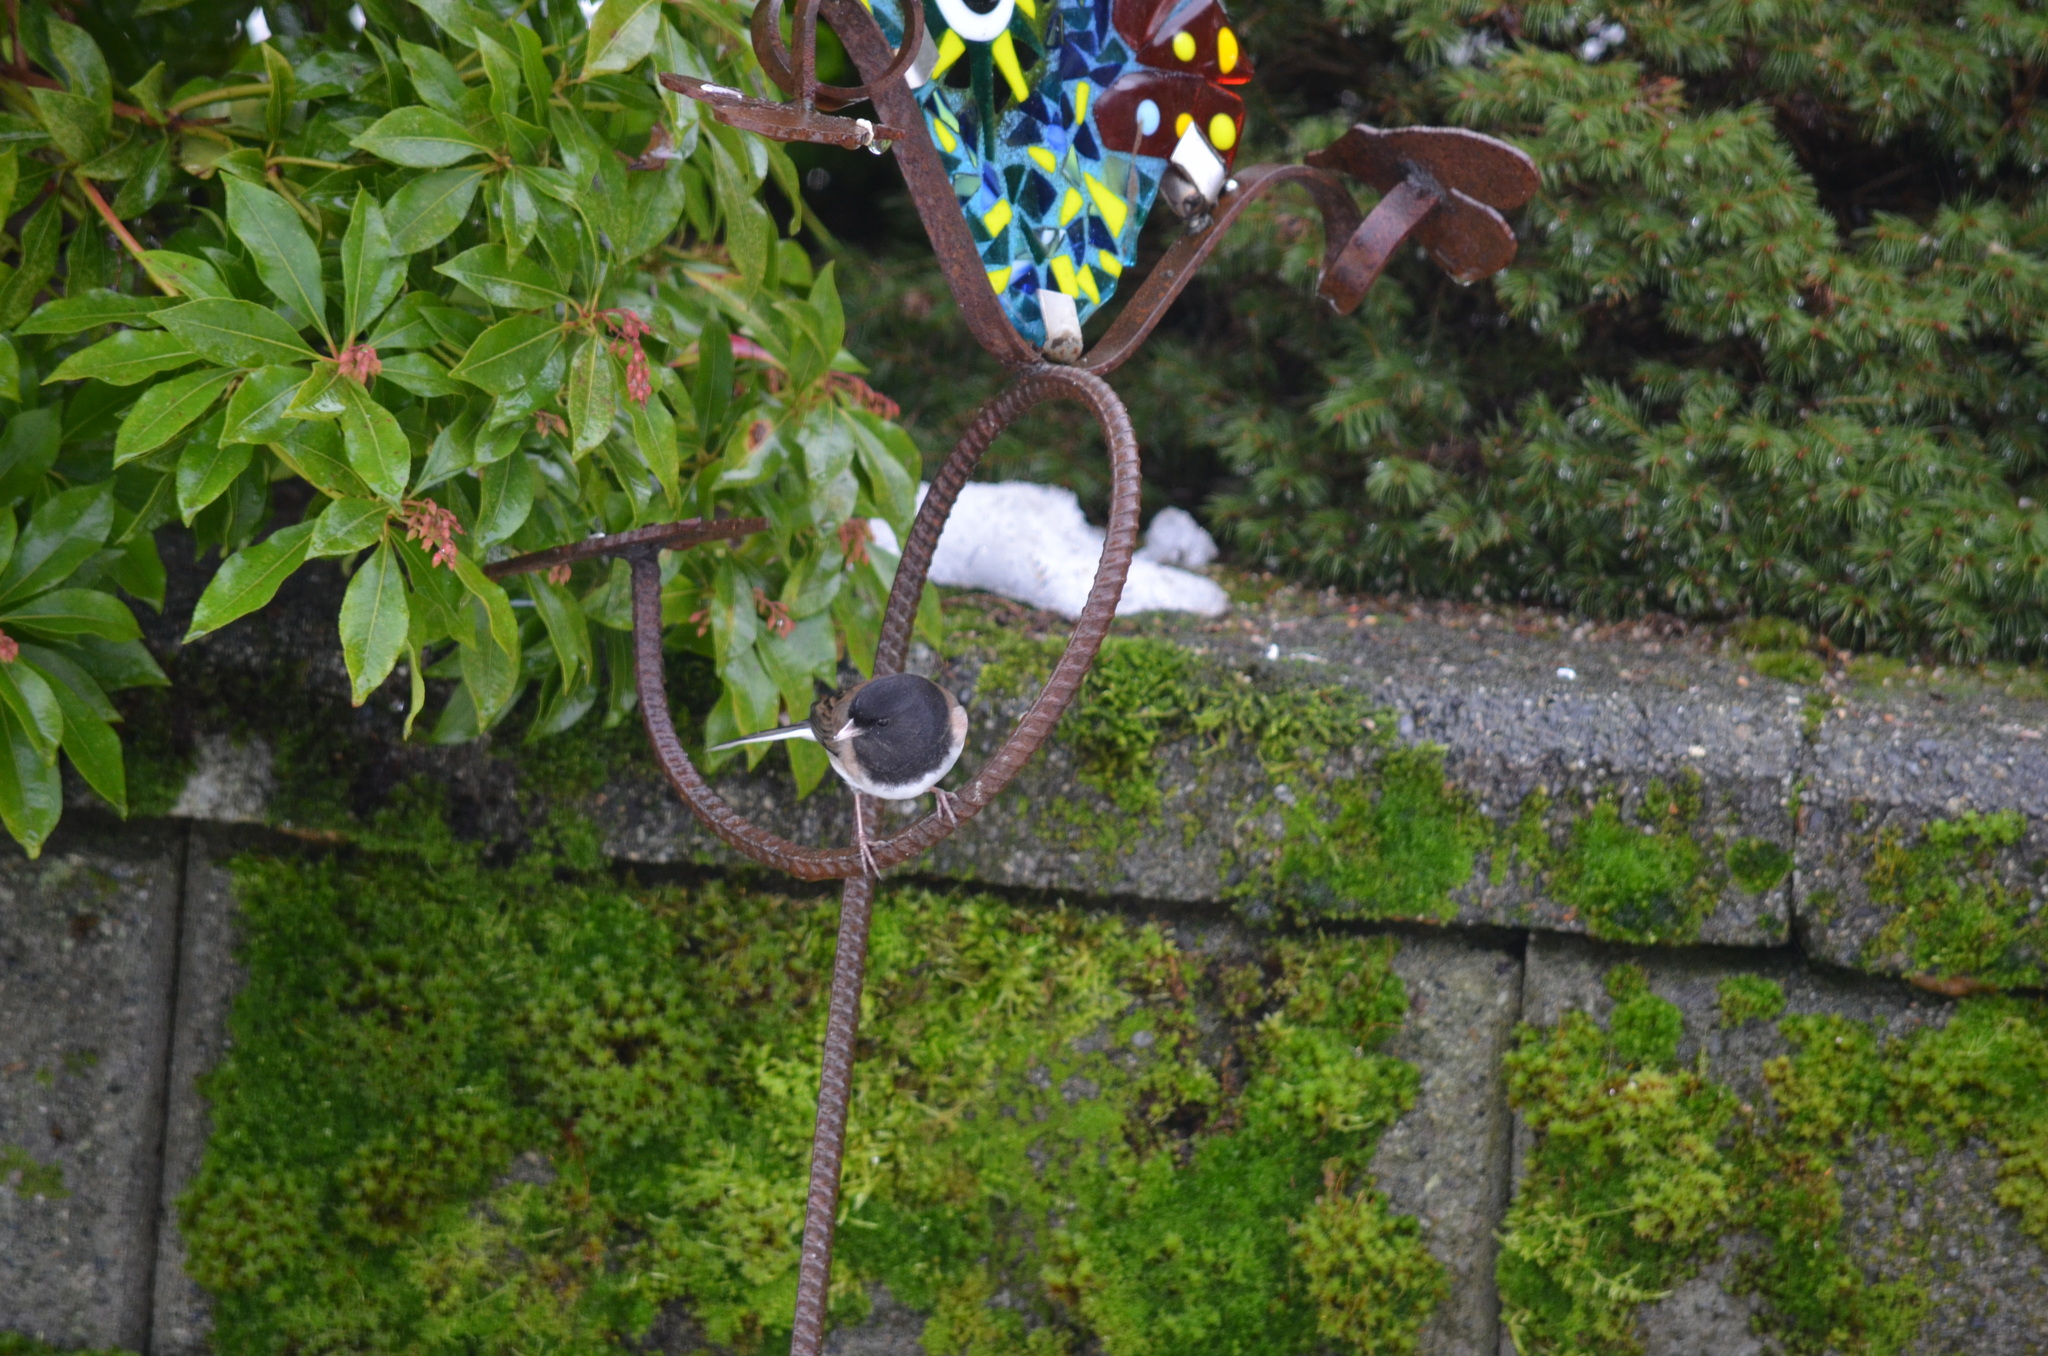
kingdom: Animalia
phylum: Chordata
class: Aves
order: Passeriformes
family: Passerellidae
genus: Junco
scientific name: Junco hyemalis
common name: Dark-eyed junco
